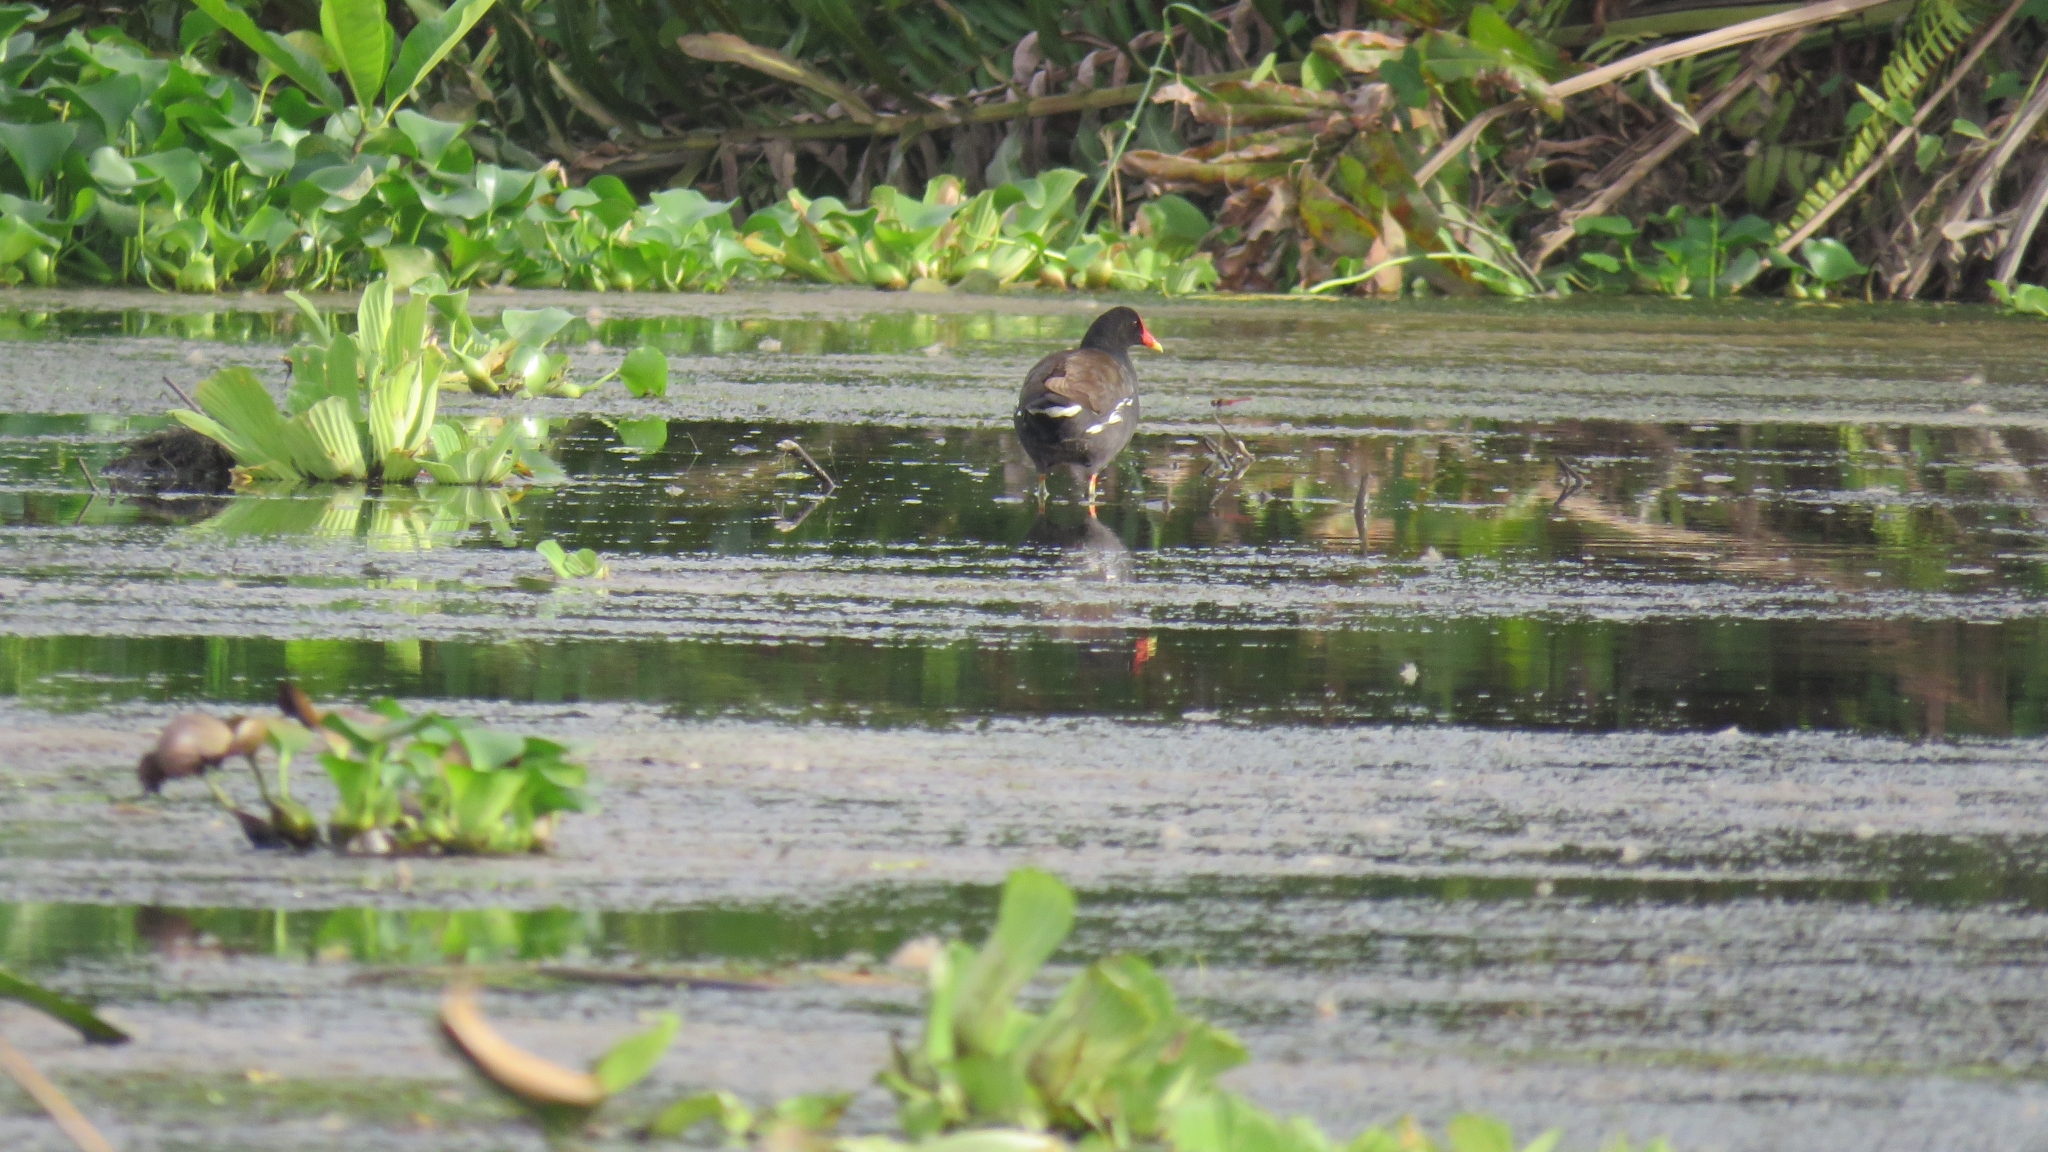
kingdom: Animalia
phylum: Chordata
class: Aves
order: Gruiformes
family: Rallidae
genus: Gallinula
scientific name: Gallinula chloropus
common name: Common moorhen
